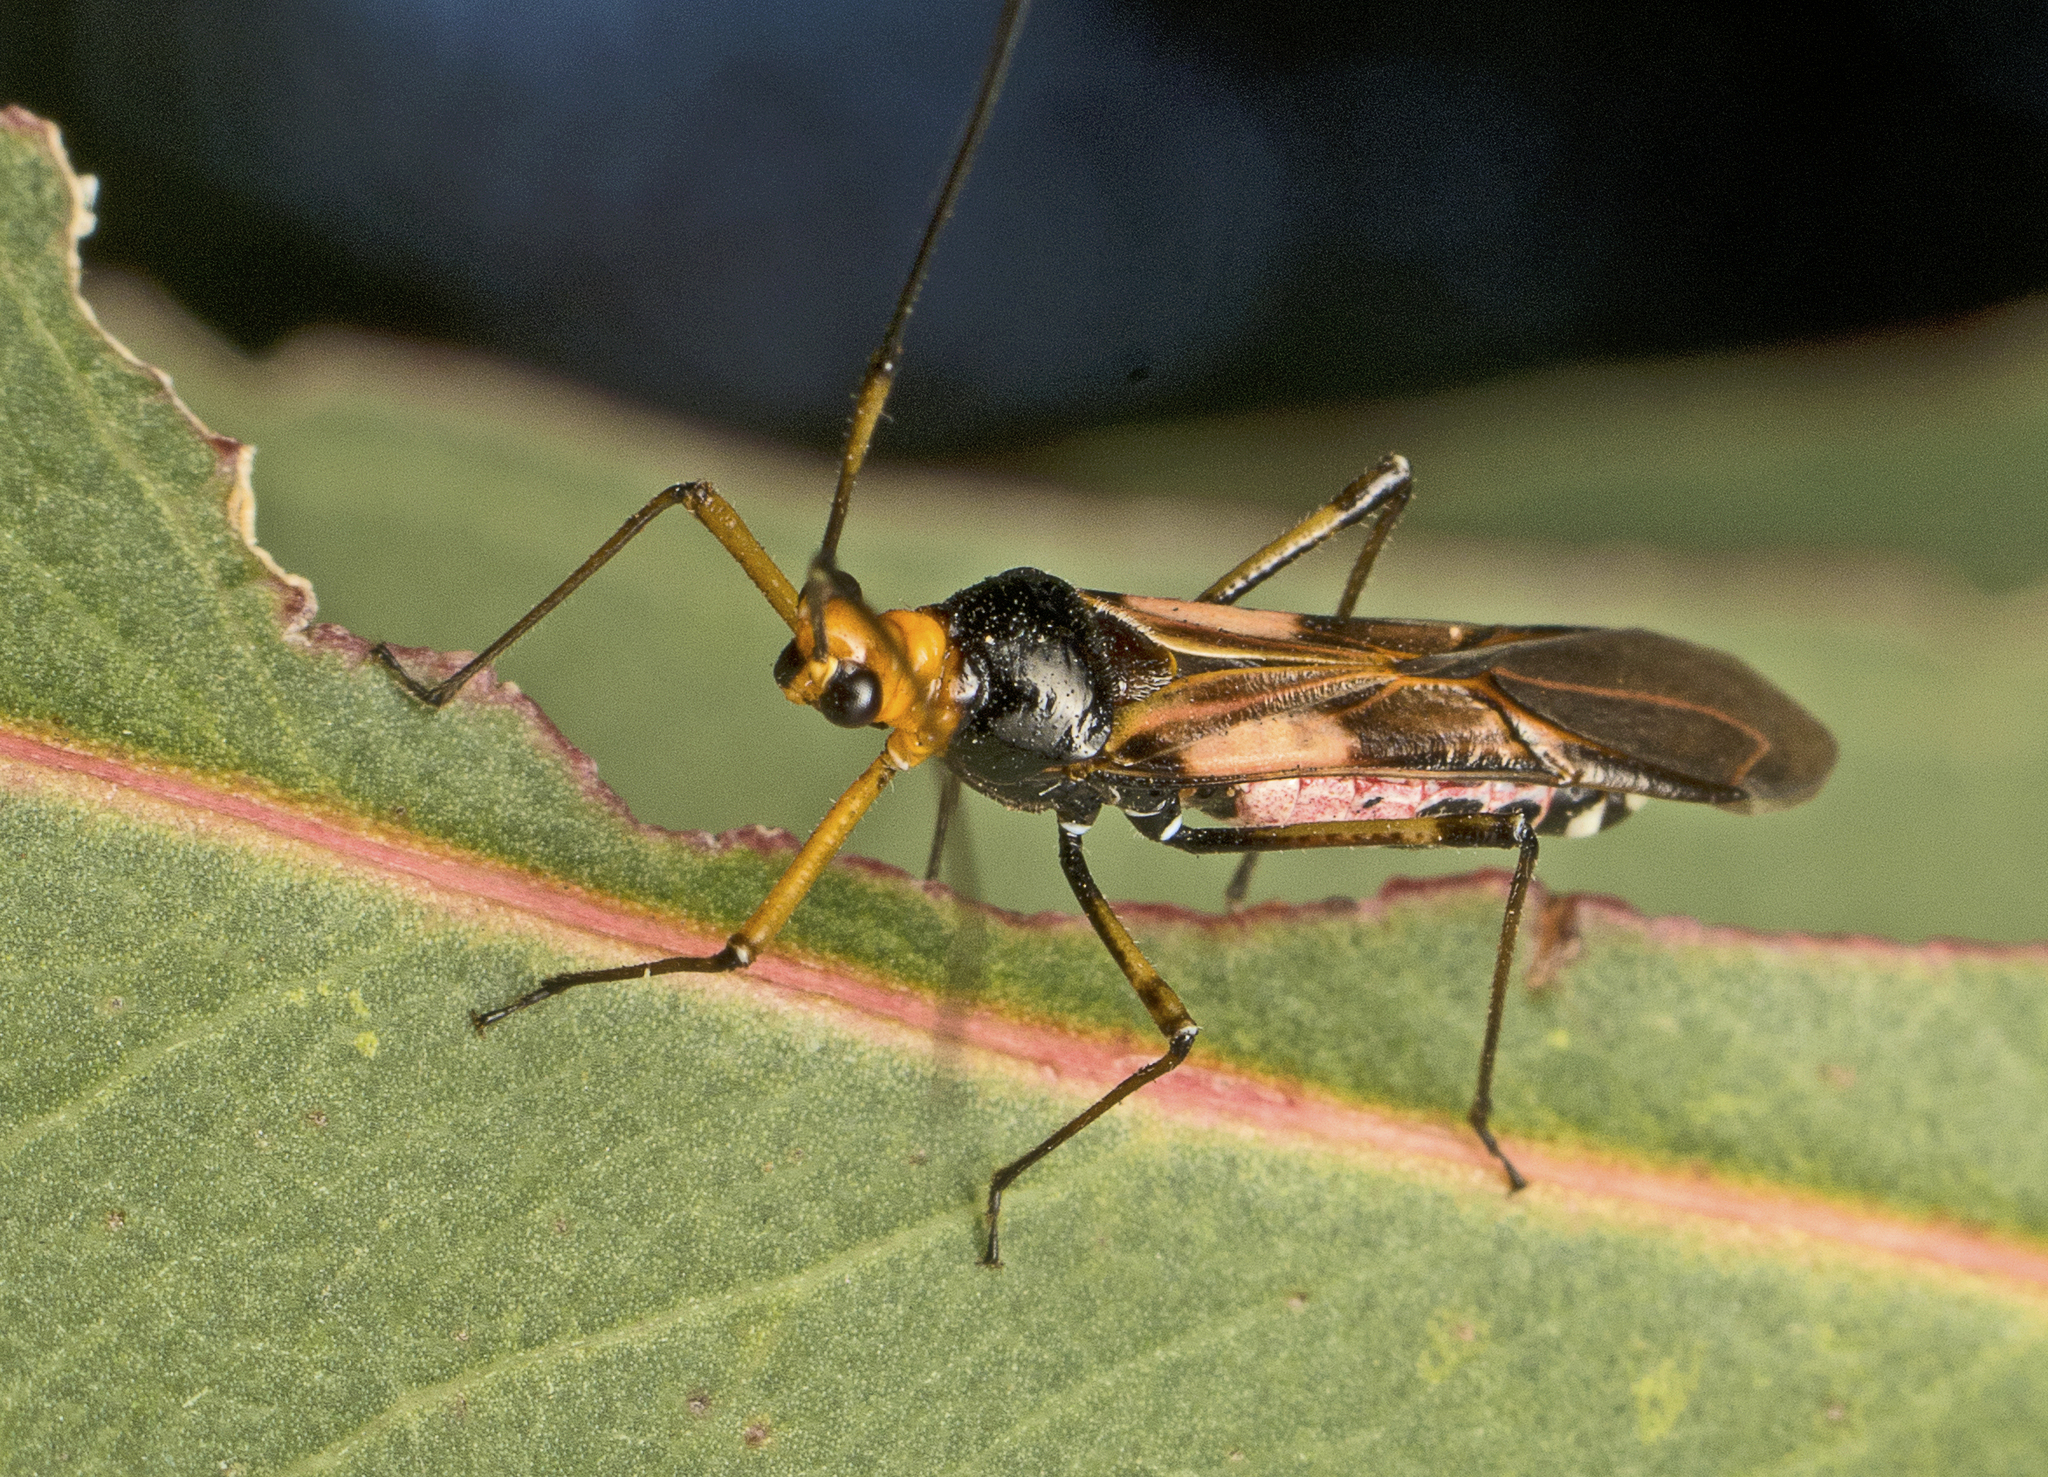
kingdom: Animalia
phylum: Arthropoda
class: Insecta
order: Hemiptera
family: Miridae
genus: Rayieria
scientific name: Rayieria basifer
